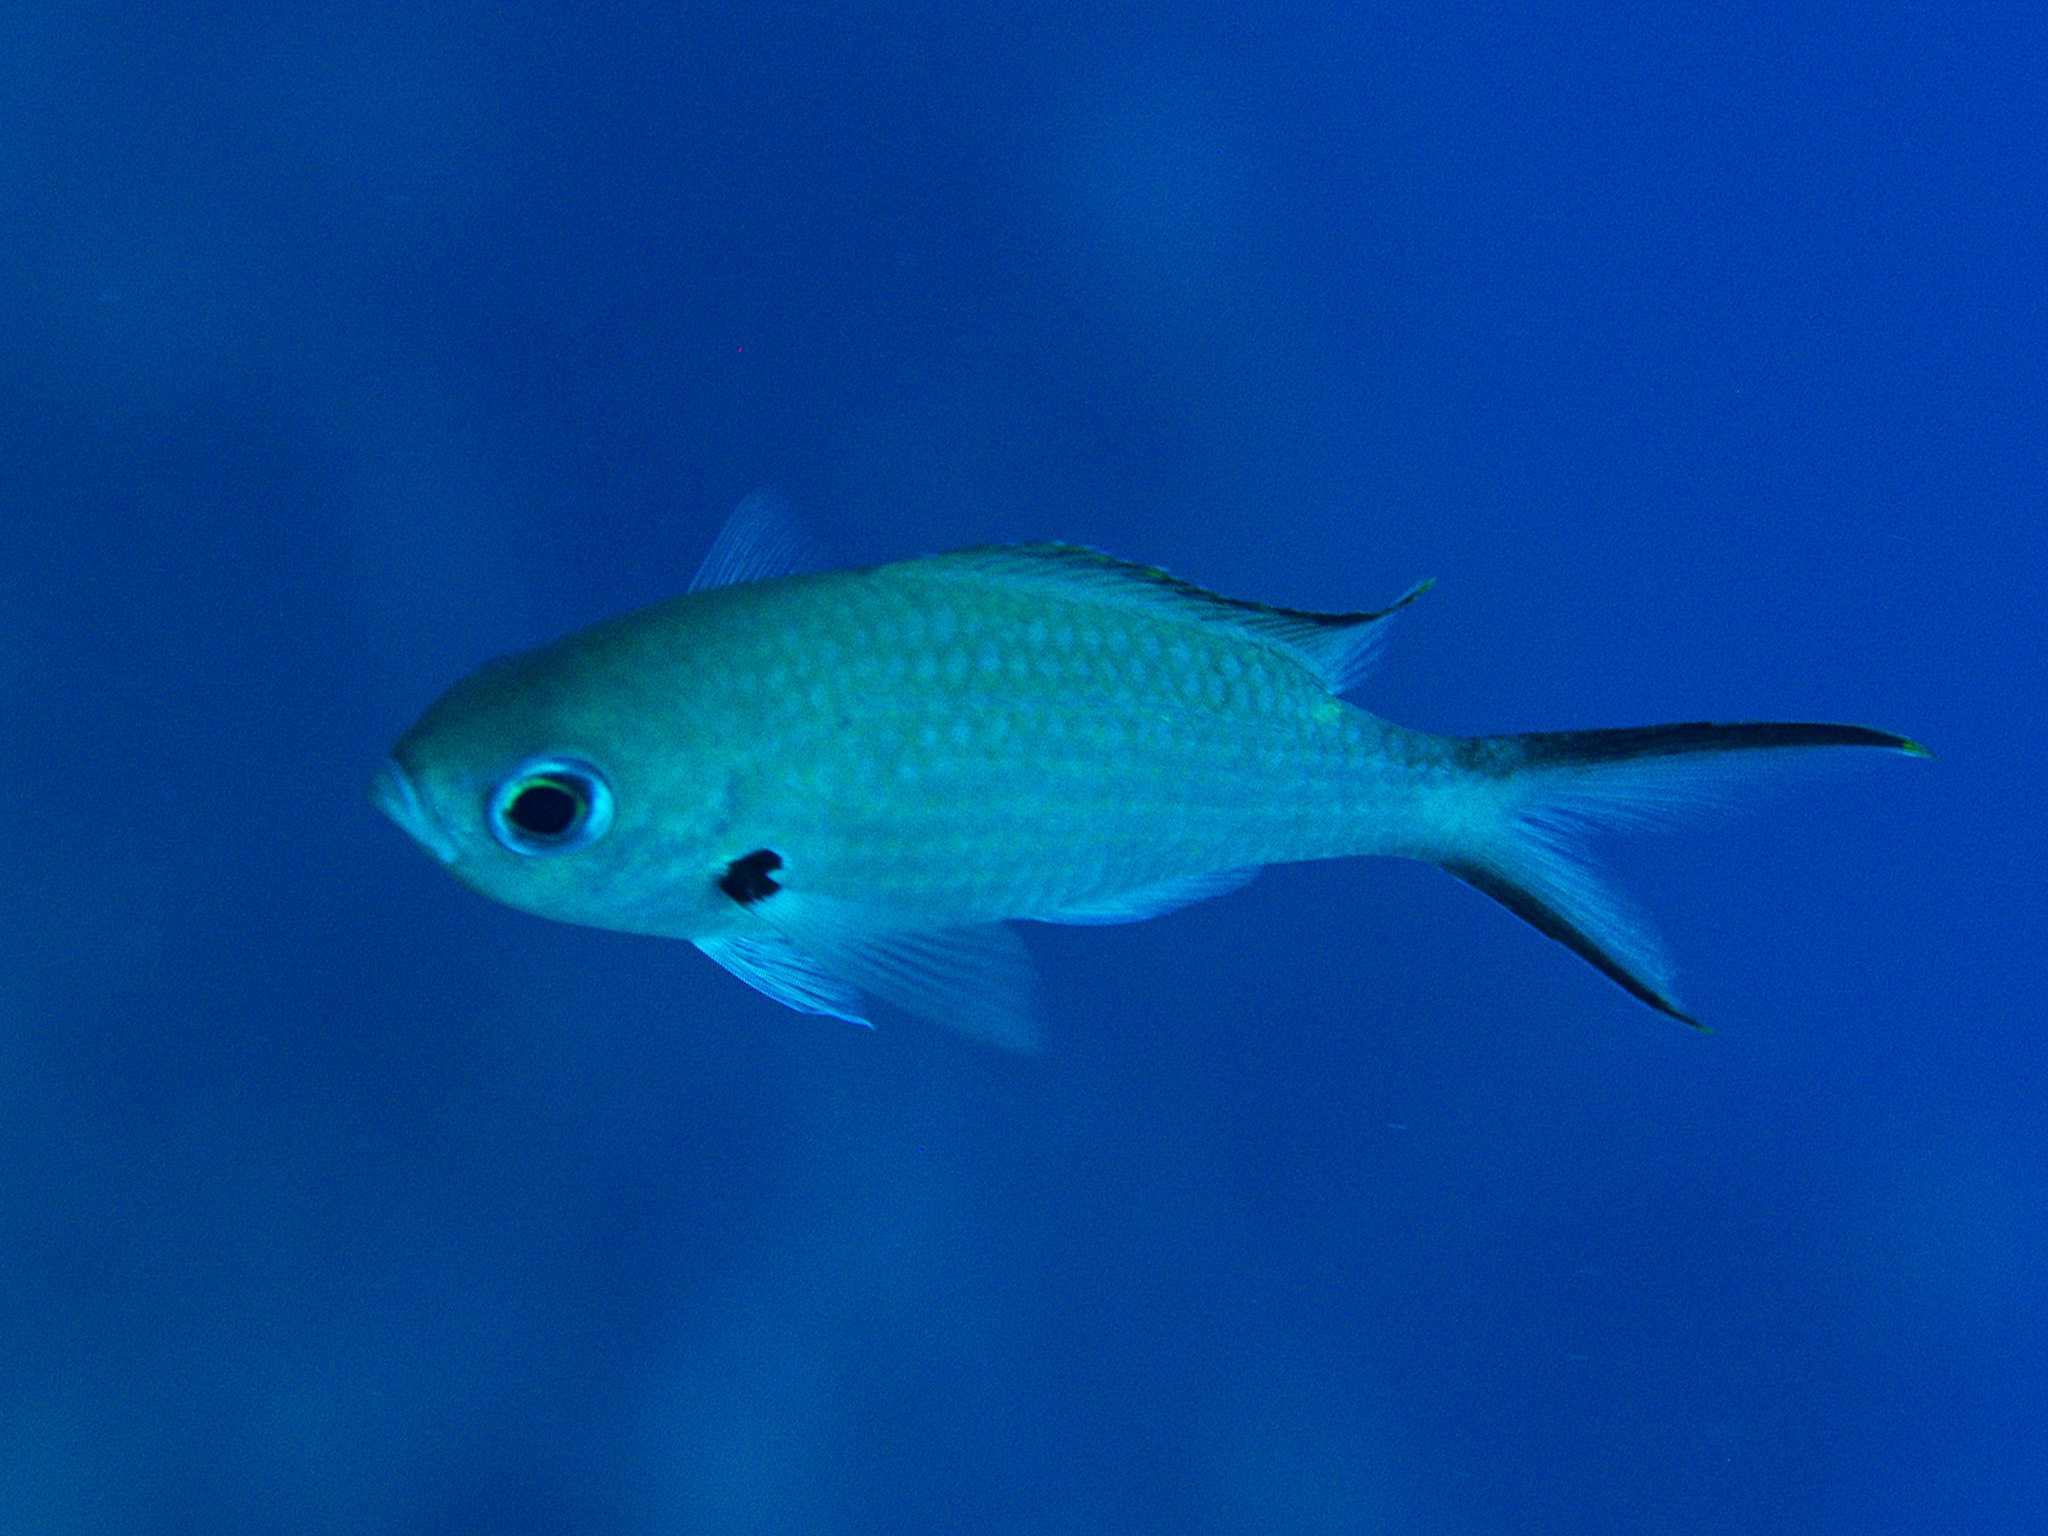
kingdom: Animalia
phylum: Chordata
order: Perciformes
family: Pomacentridae
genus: Chromis
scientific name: Chromis multilineata
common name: Brown chromis
